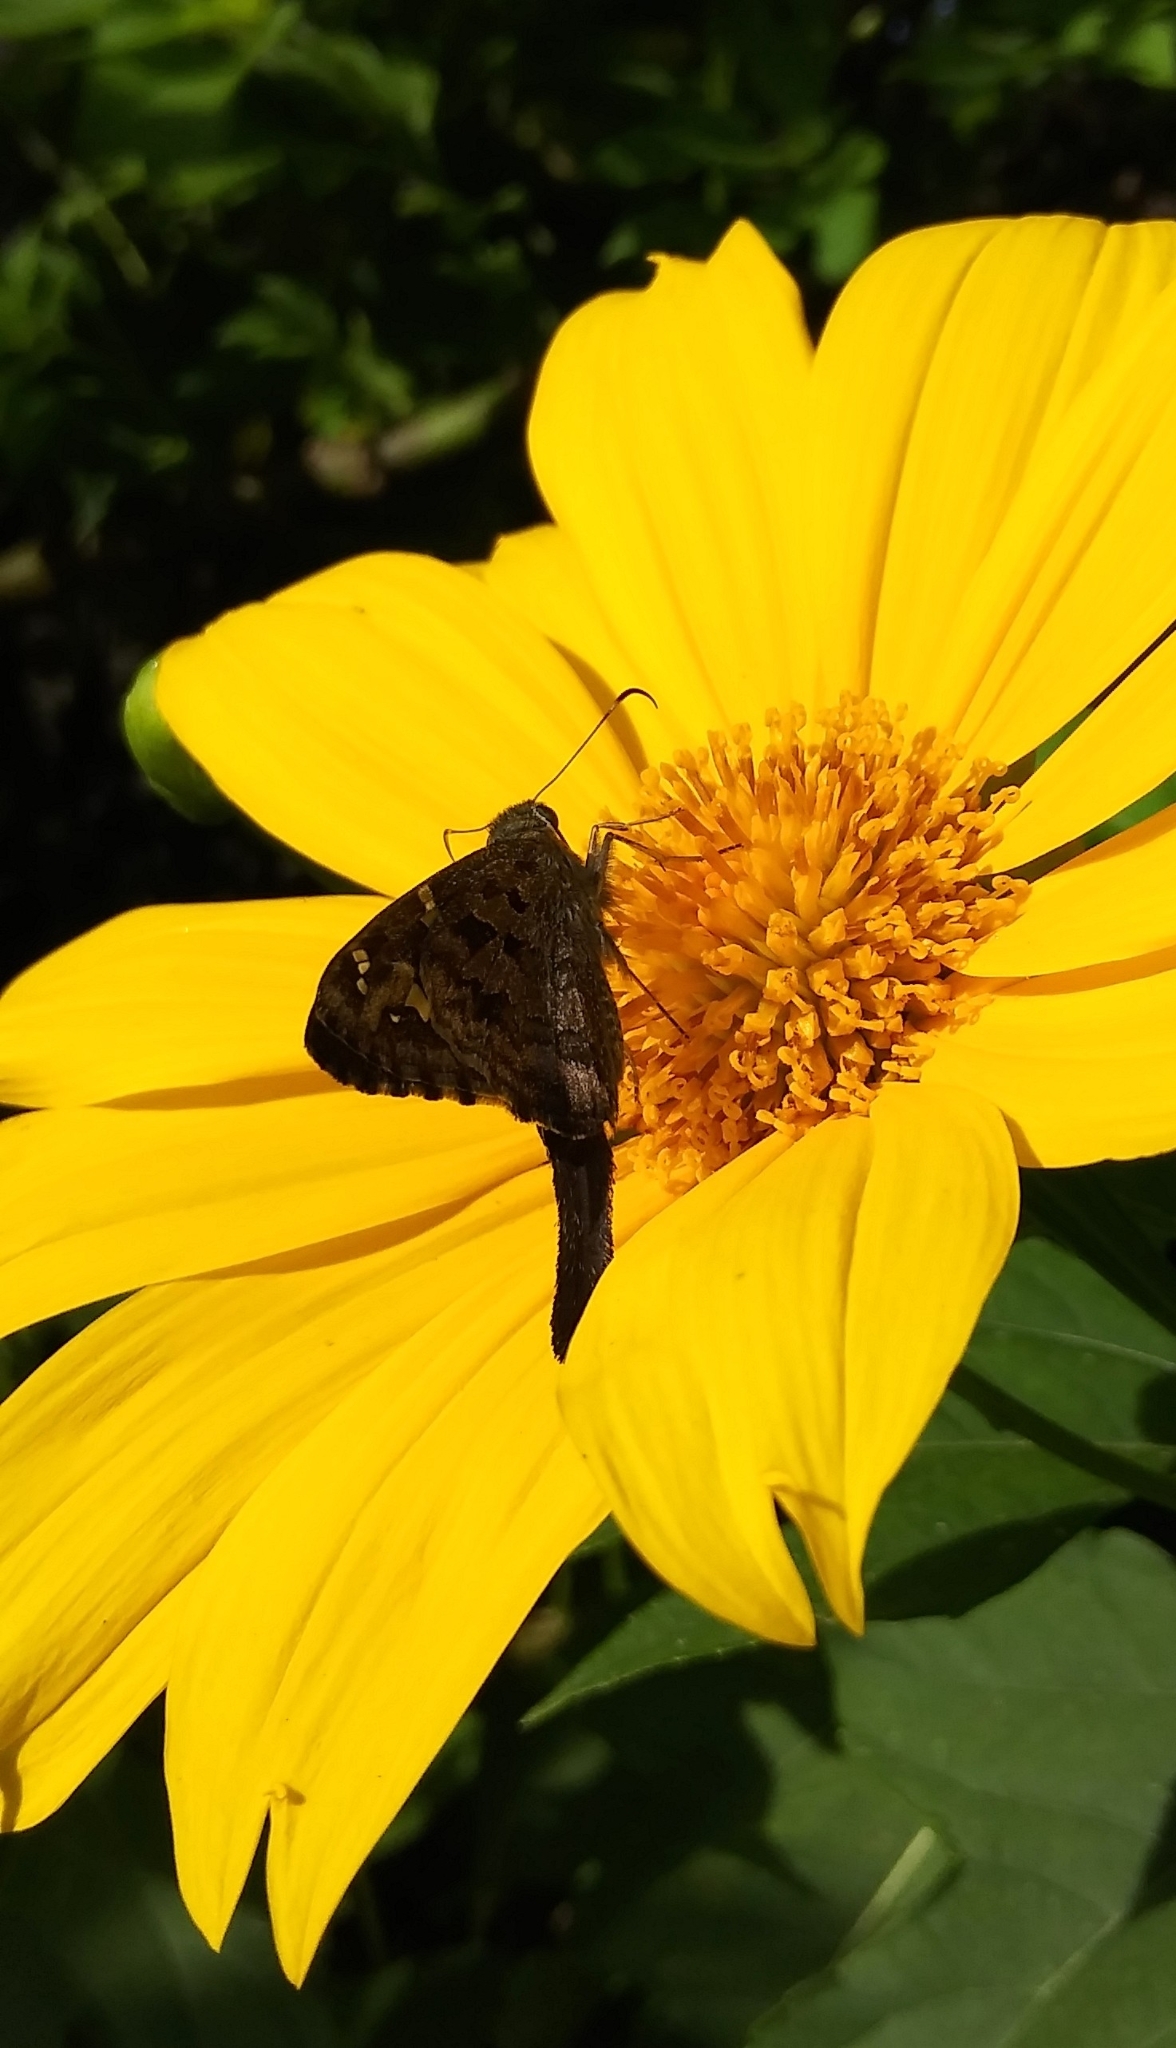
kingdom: Animalia
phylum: Arthropoda
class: Insecta
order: Lepidoptera
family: Hesperiidae
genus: Urbanus
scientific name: Urbanus proteus
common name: Long-tailed skipper
